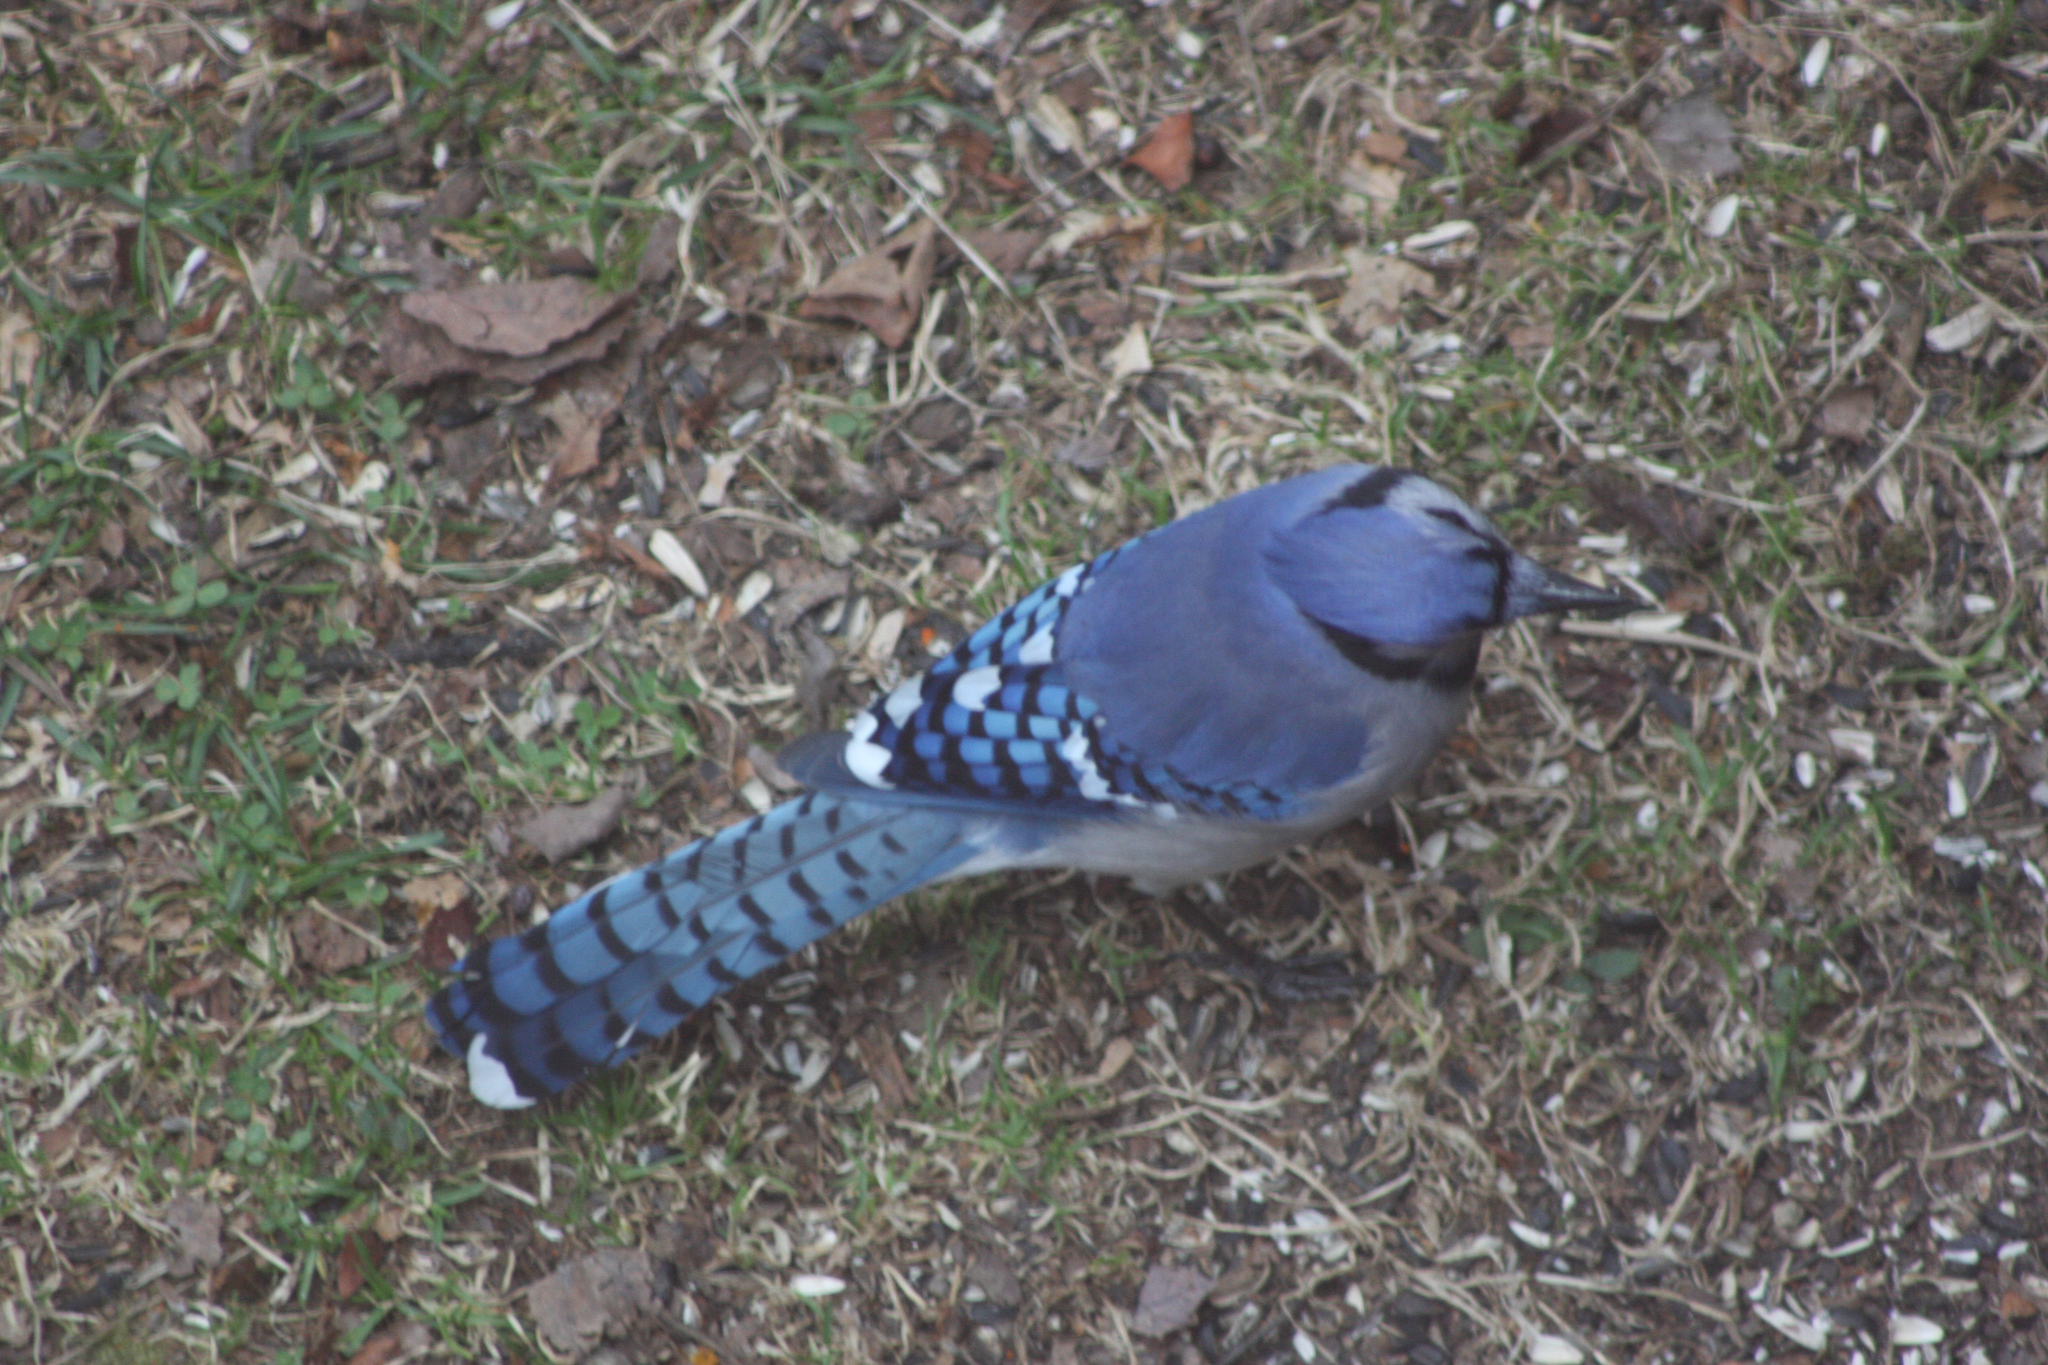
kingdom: Animalia
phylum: Chordata
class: Aves
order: Passeriformes
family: Corvidae
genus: Cyanocitta
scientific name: Cyanocitta cristata
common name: Blue jay
